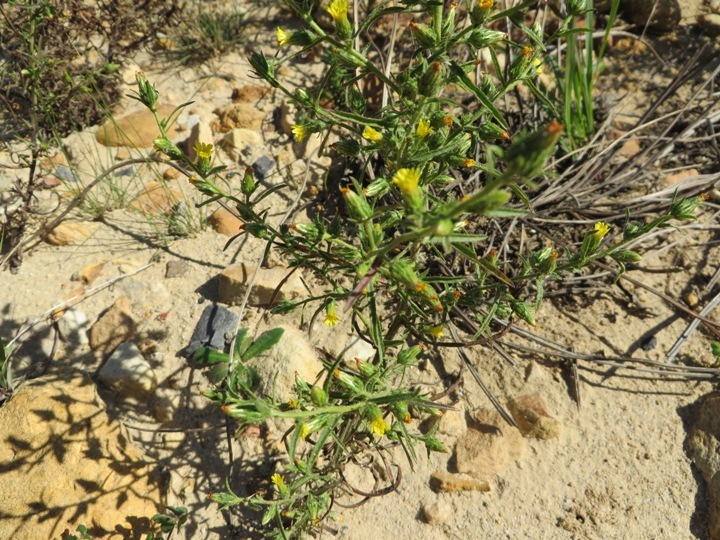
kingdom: Plantae
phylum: Tracheophyta
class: Magnoliopsida
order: Asterales
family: Asteraceae
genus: Dittrichia
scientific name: Dittrichia graveolens
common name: Stinking fleabane
